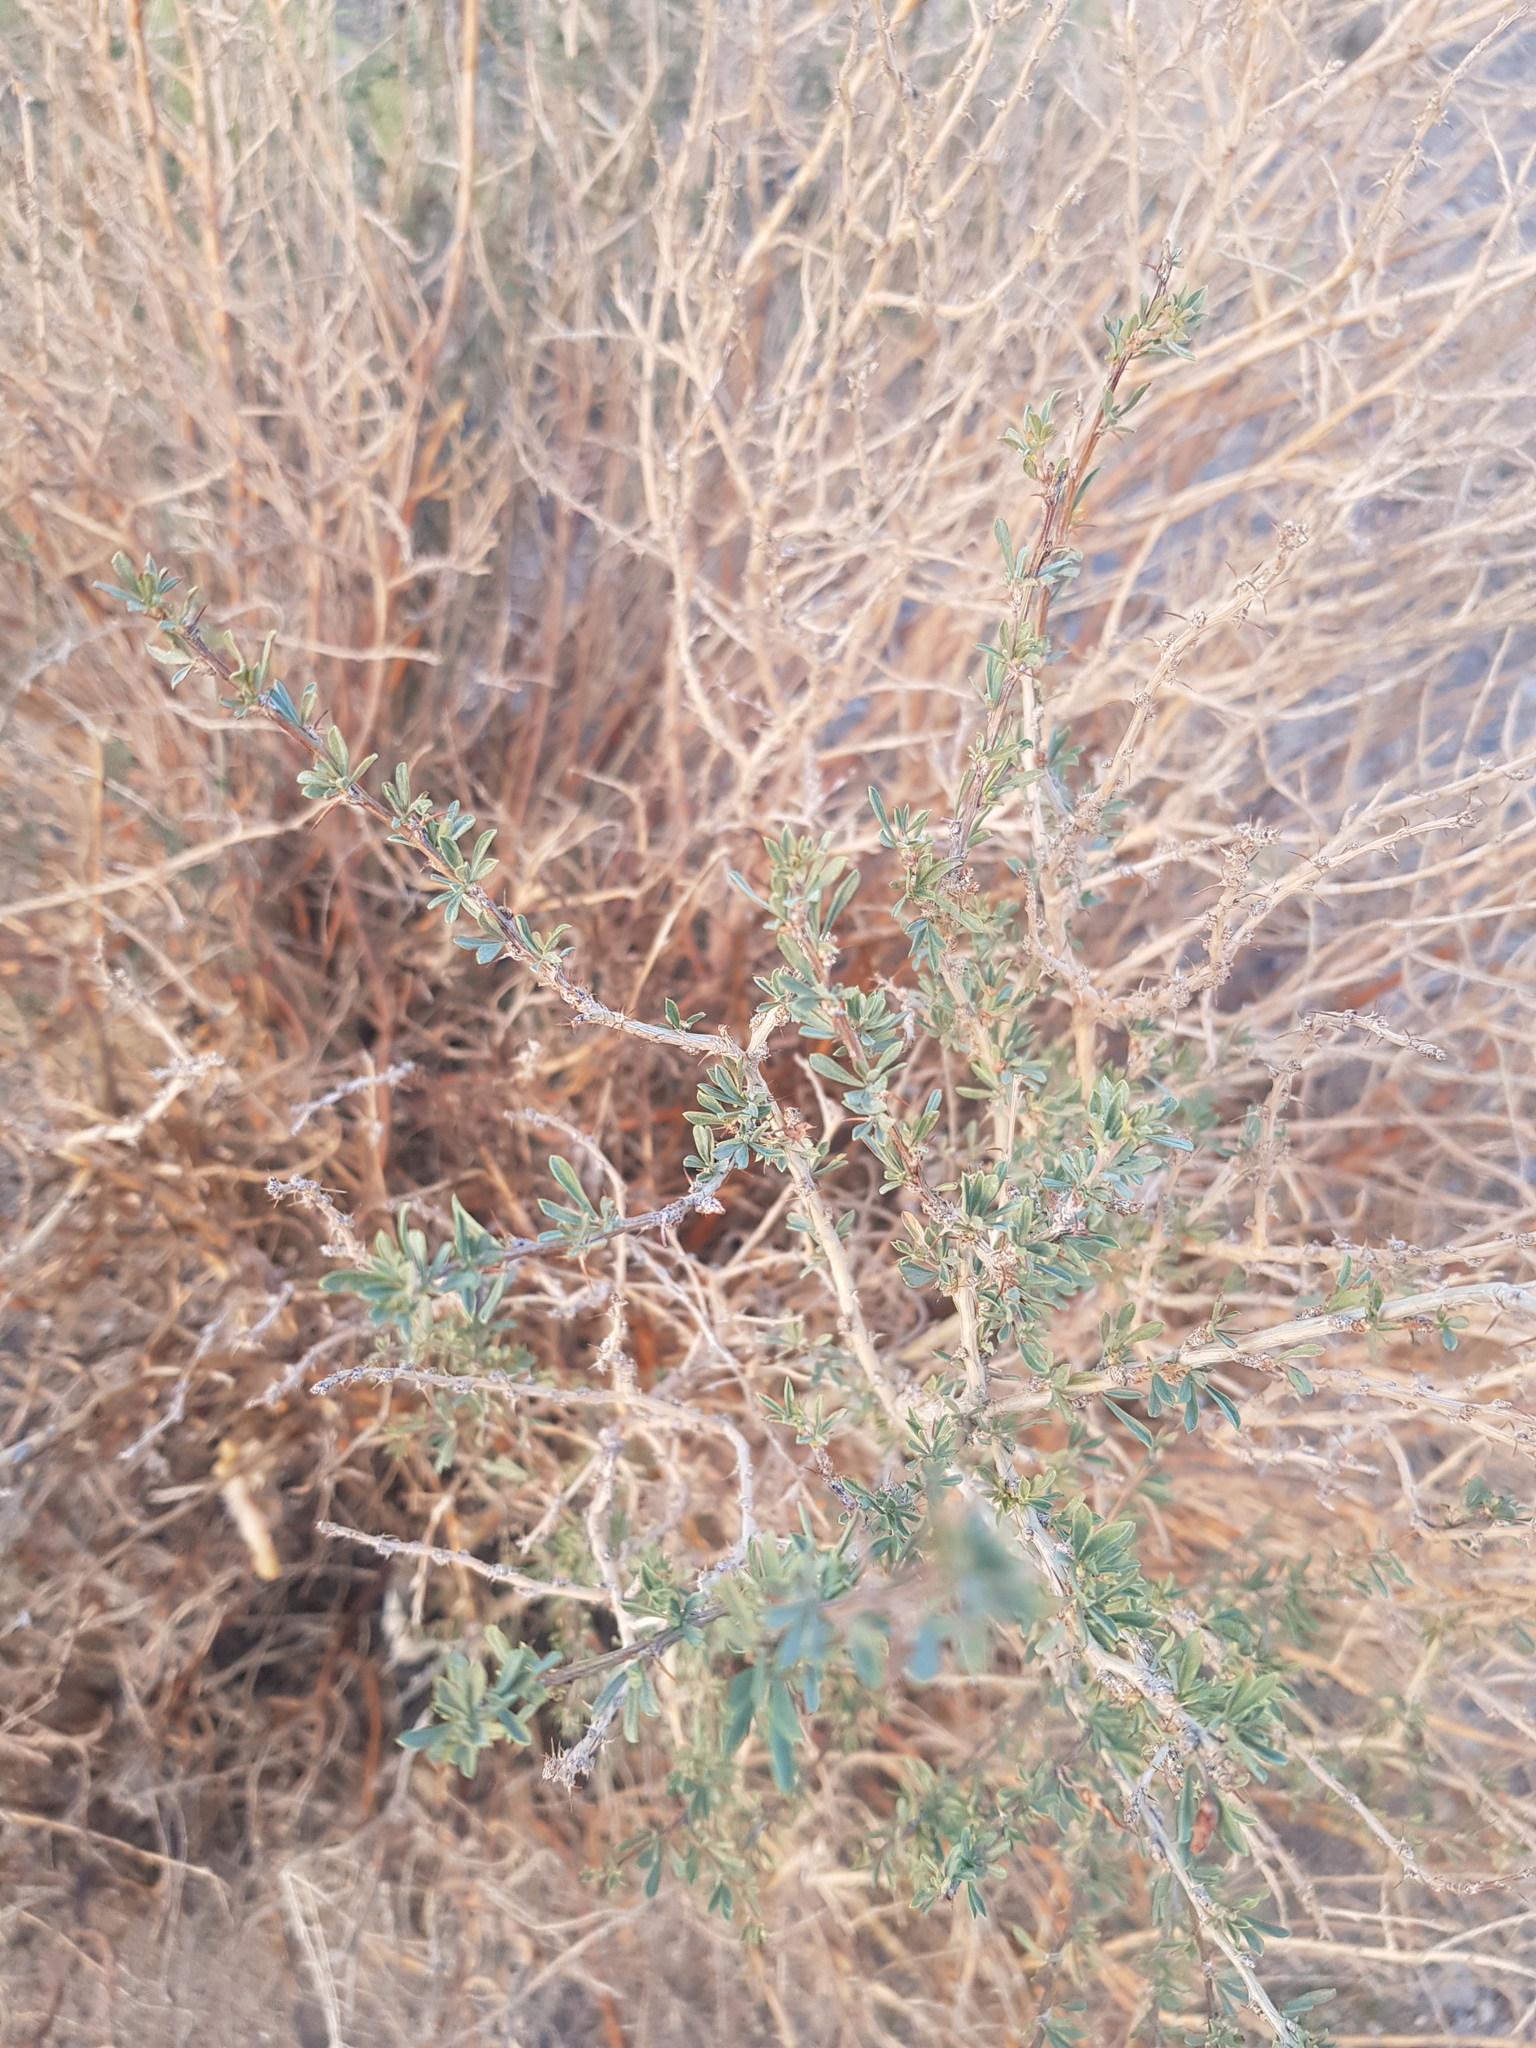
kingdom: Plantae
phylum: Tracheophyta
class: Magnoliopsida
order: Fabales
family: Fabaceae
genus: Caragana
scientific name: Caragana leucophloea
